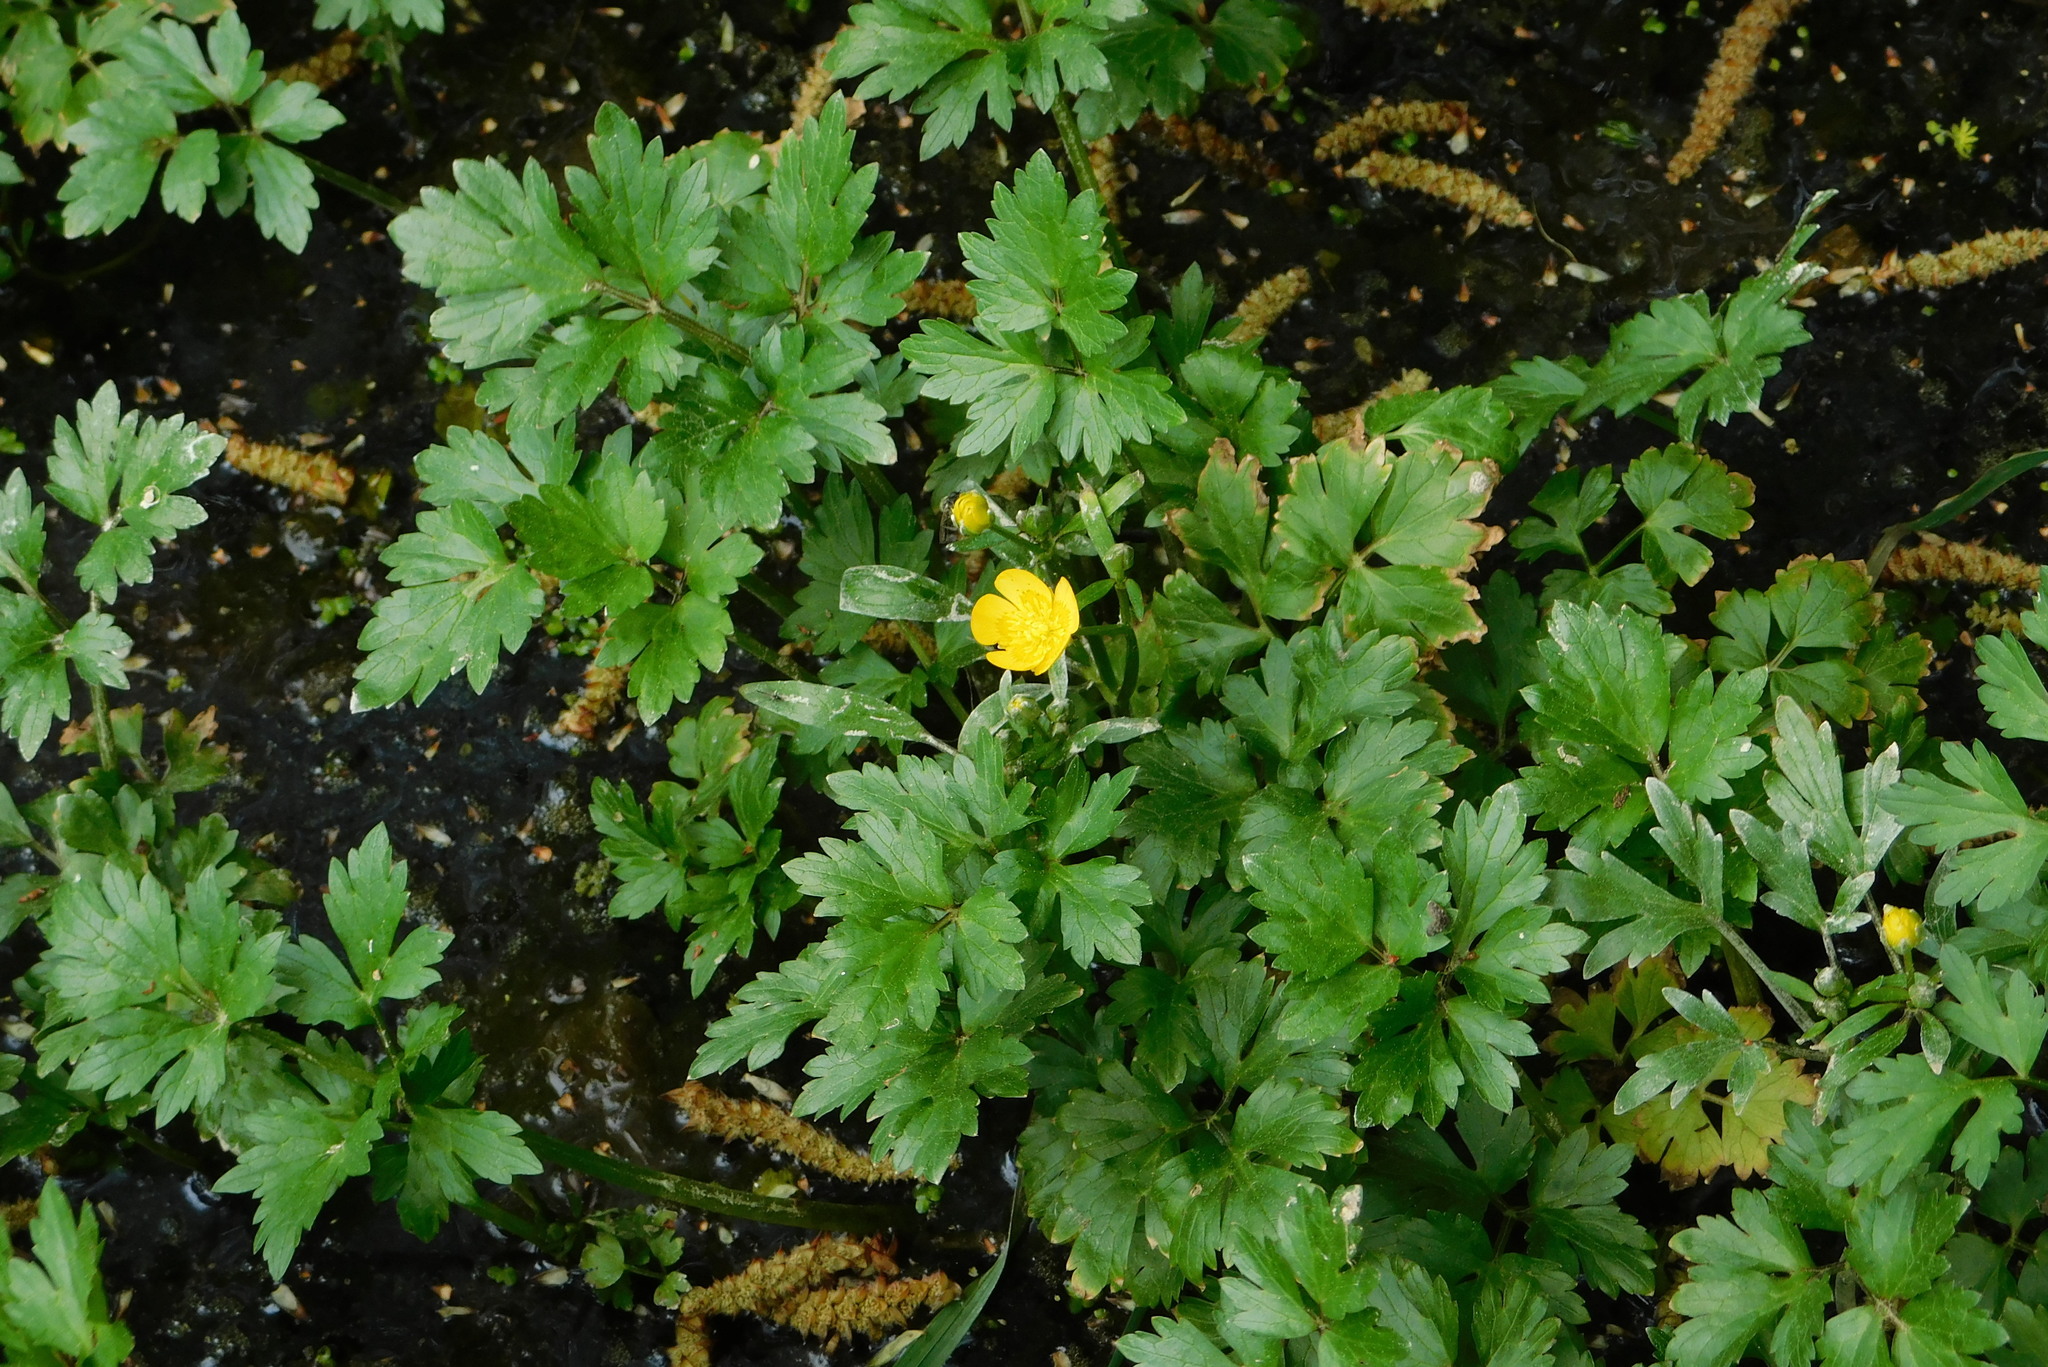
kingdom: Plantae
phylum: Tracheophyta
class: Magnoliopsida
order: Ranunculales
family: Ranunculaceae
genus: Ranunculus
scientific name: Ranunculus repens
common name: Creeping buttercup
